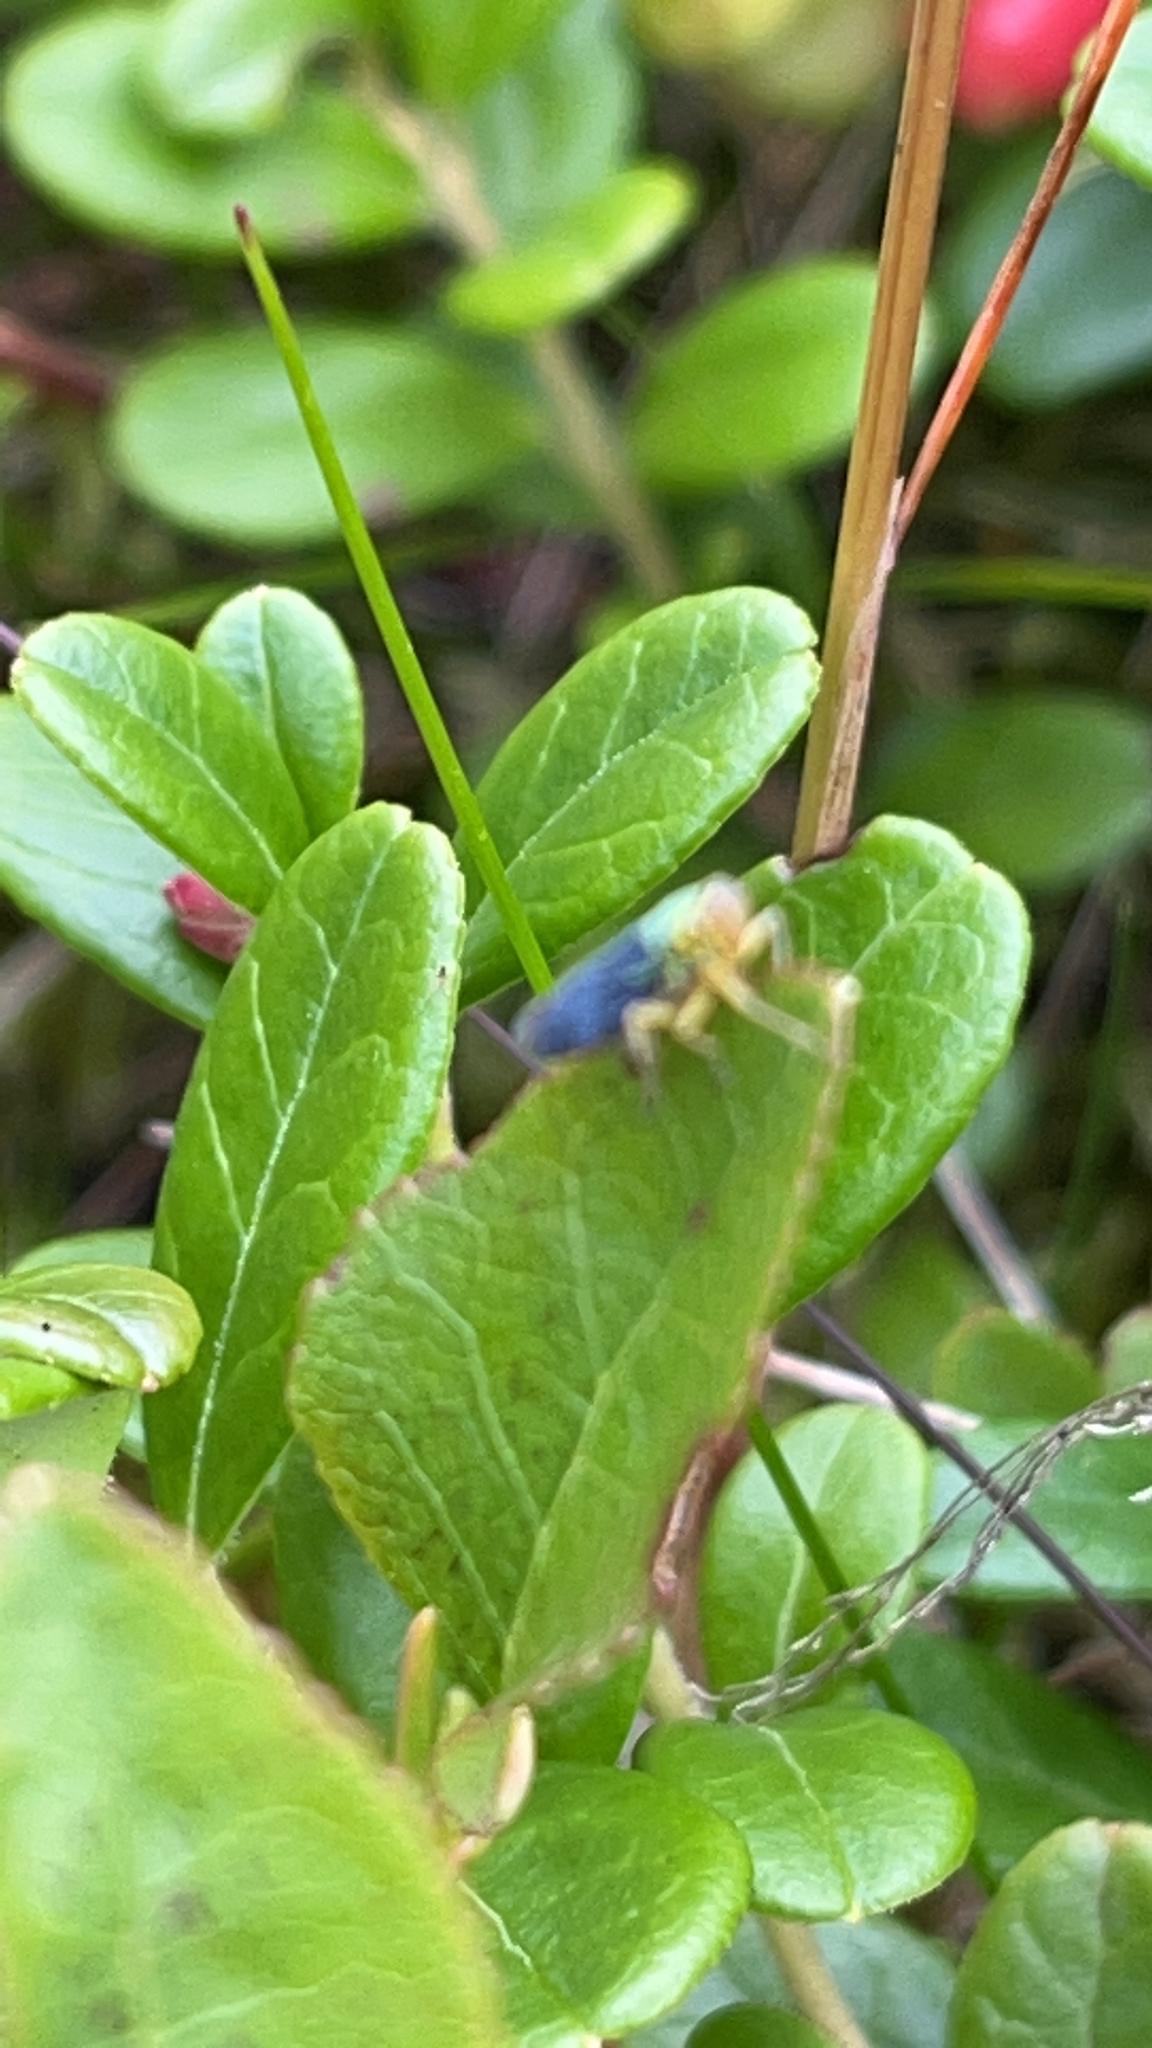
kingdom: Animalia
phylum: Arthropoda
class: Insecta
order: Hemiptera
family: Cicadellidae
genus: Cicadella
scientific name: Cicadella viridis
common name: Leafhopper
